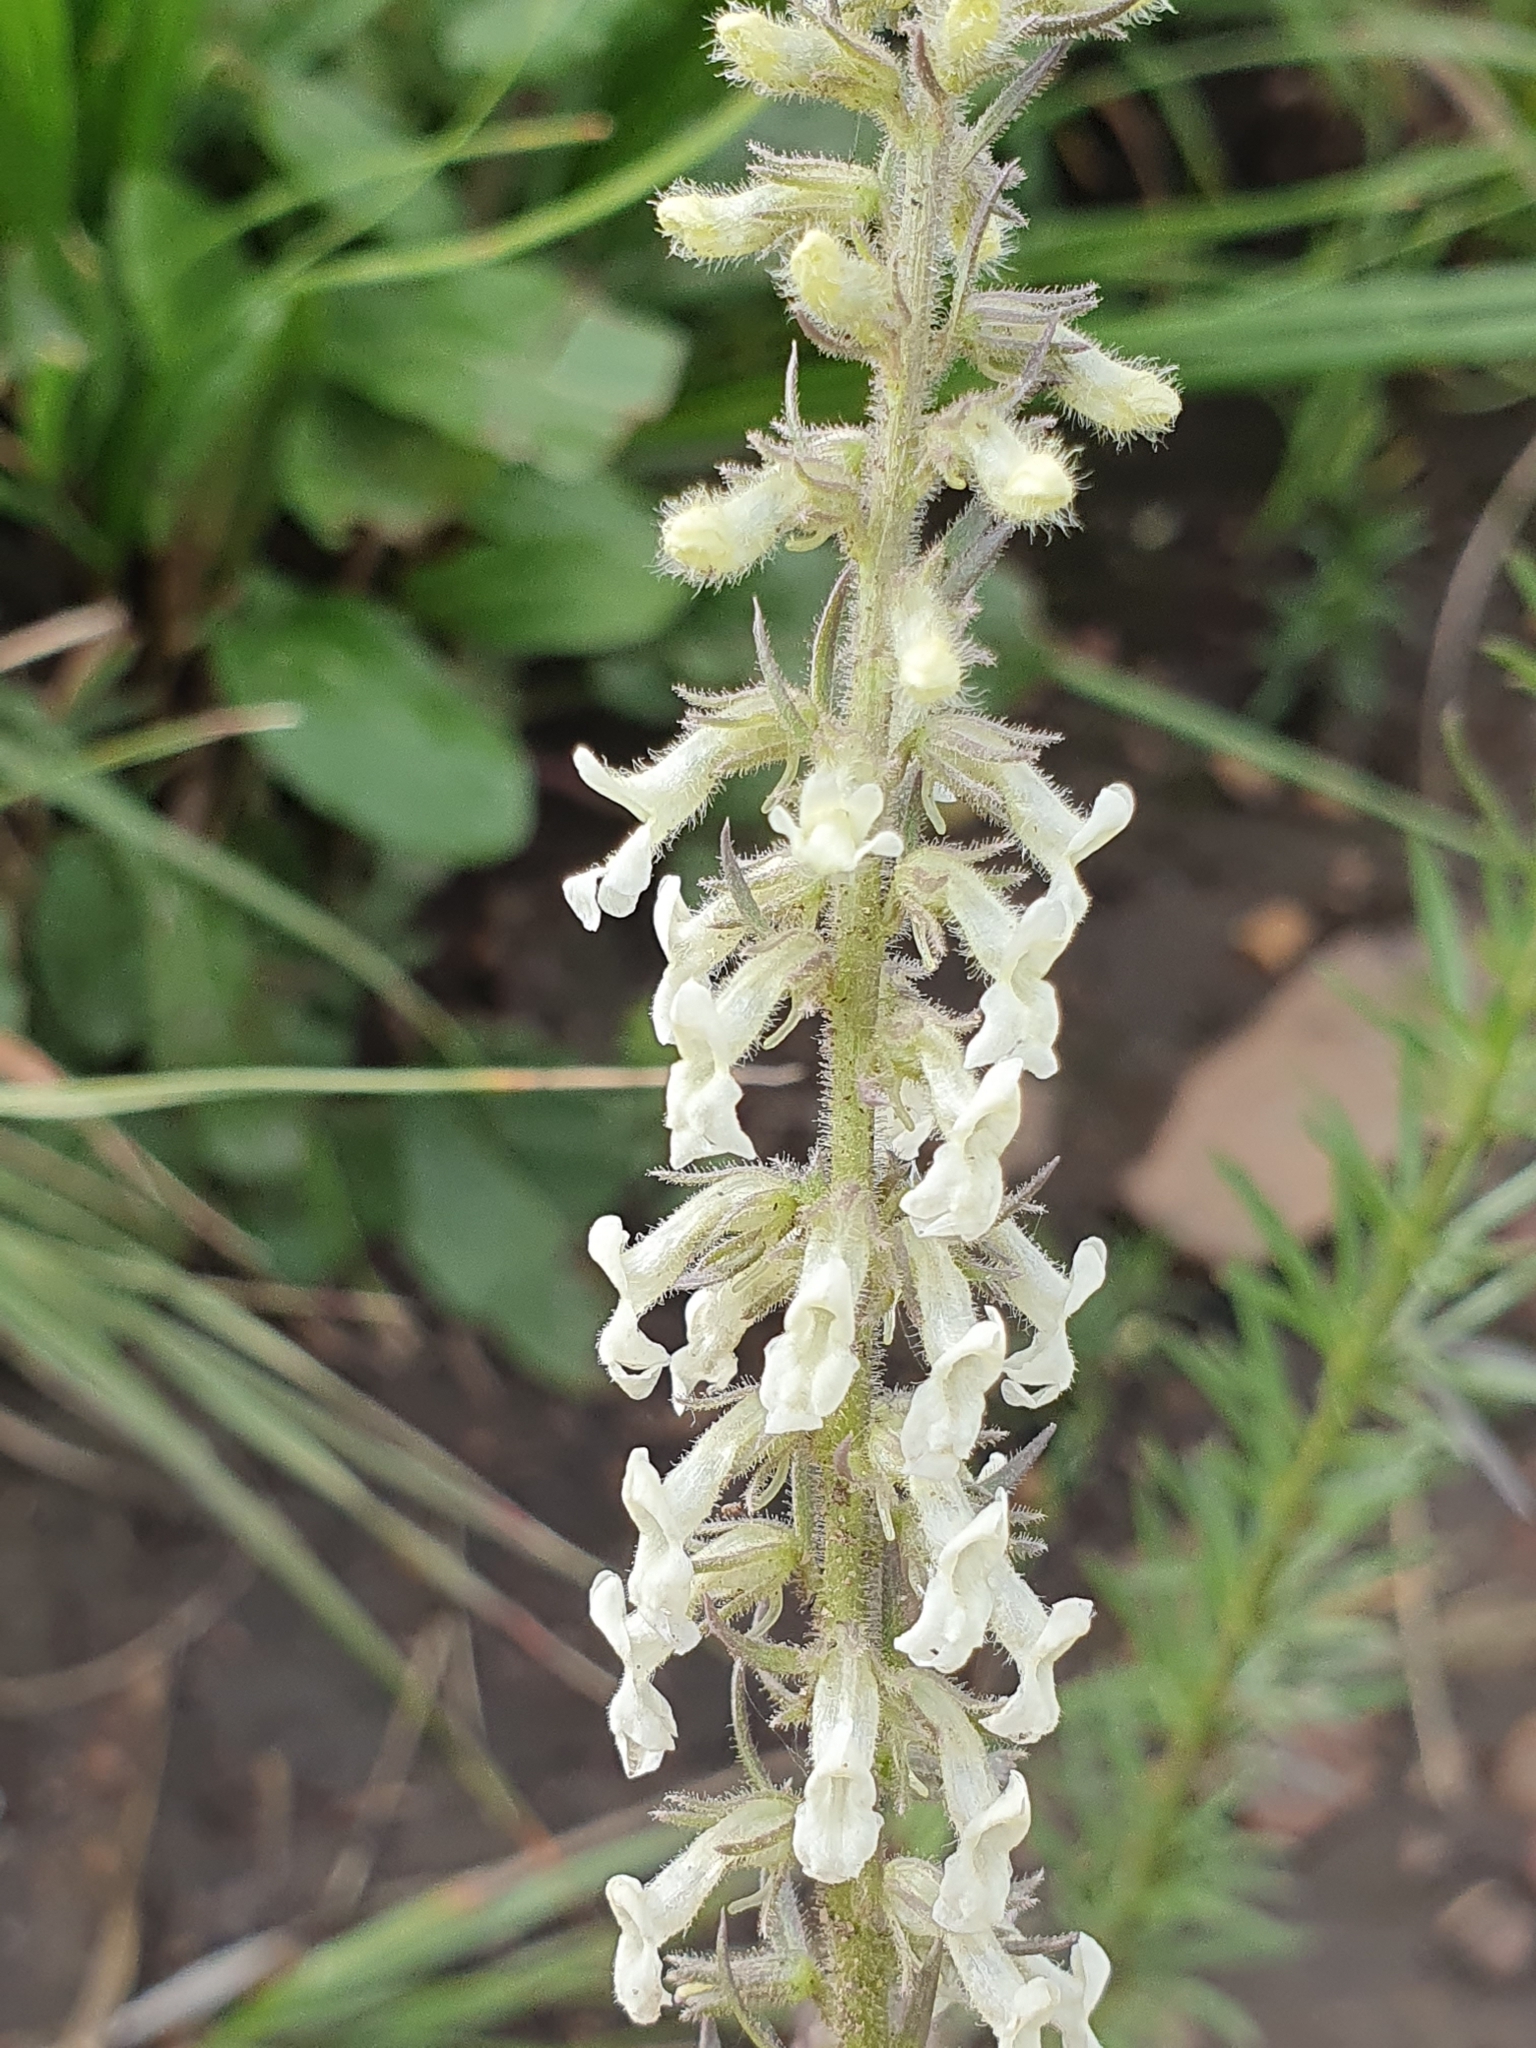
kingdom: Plantae
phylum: Tracheophyta
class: Magnoliopsida
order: Lamiales
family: Plantaginaceae
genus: Anarrhinum
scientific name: Anarrhinum pedatum
